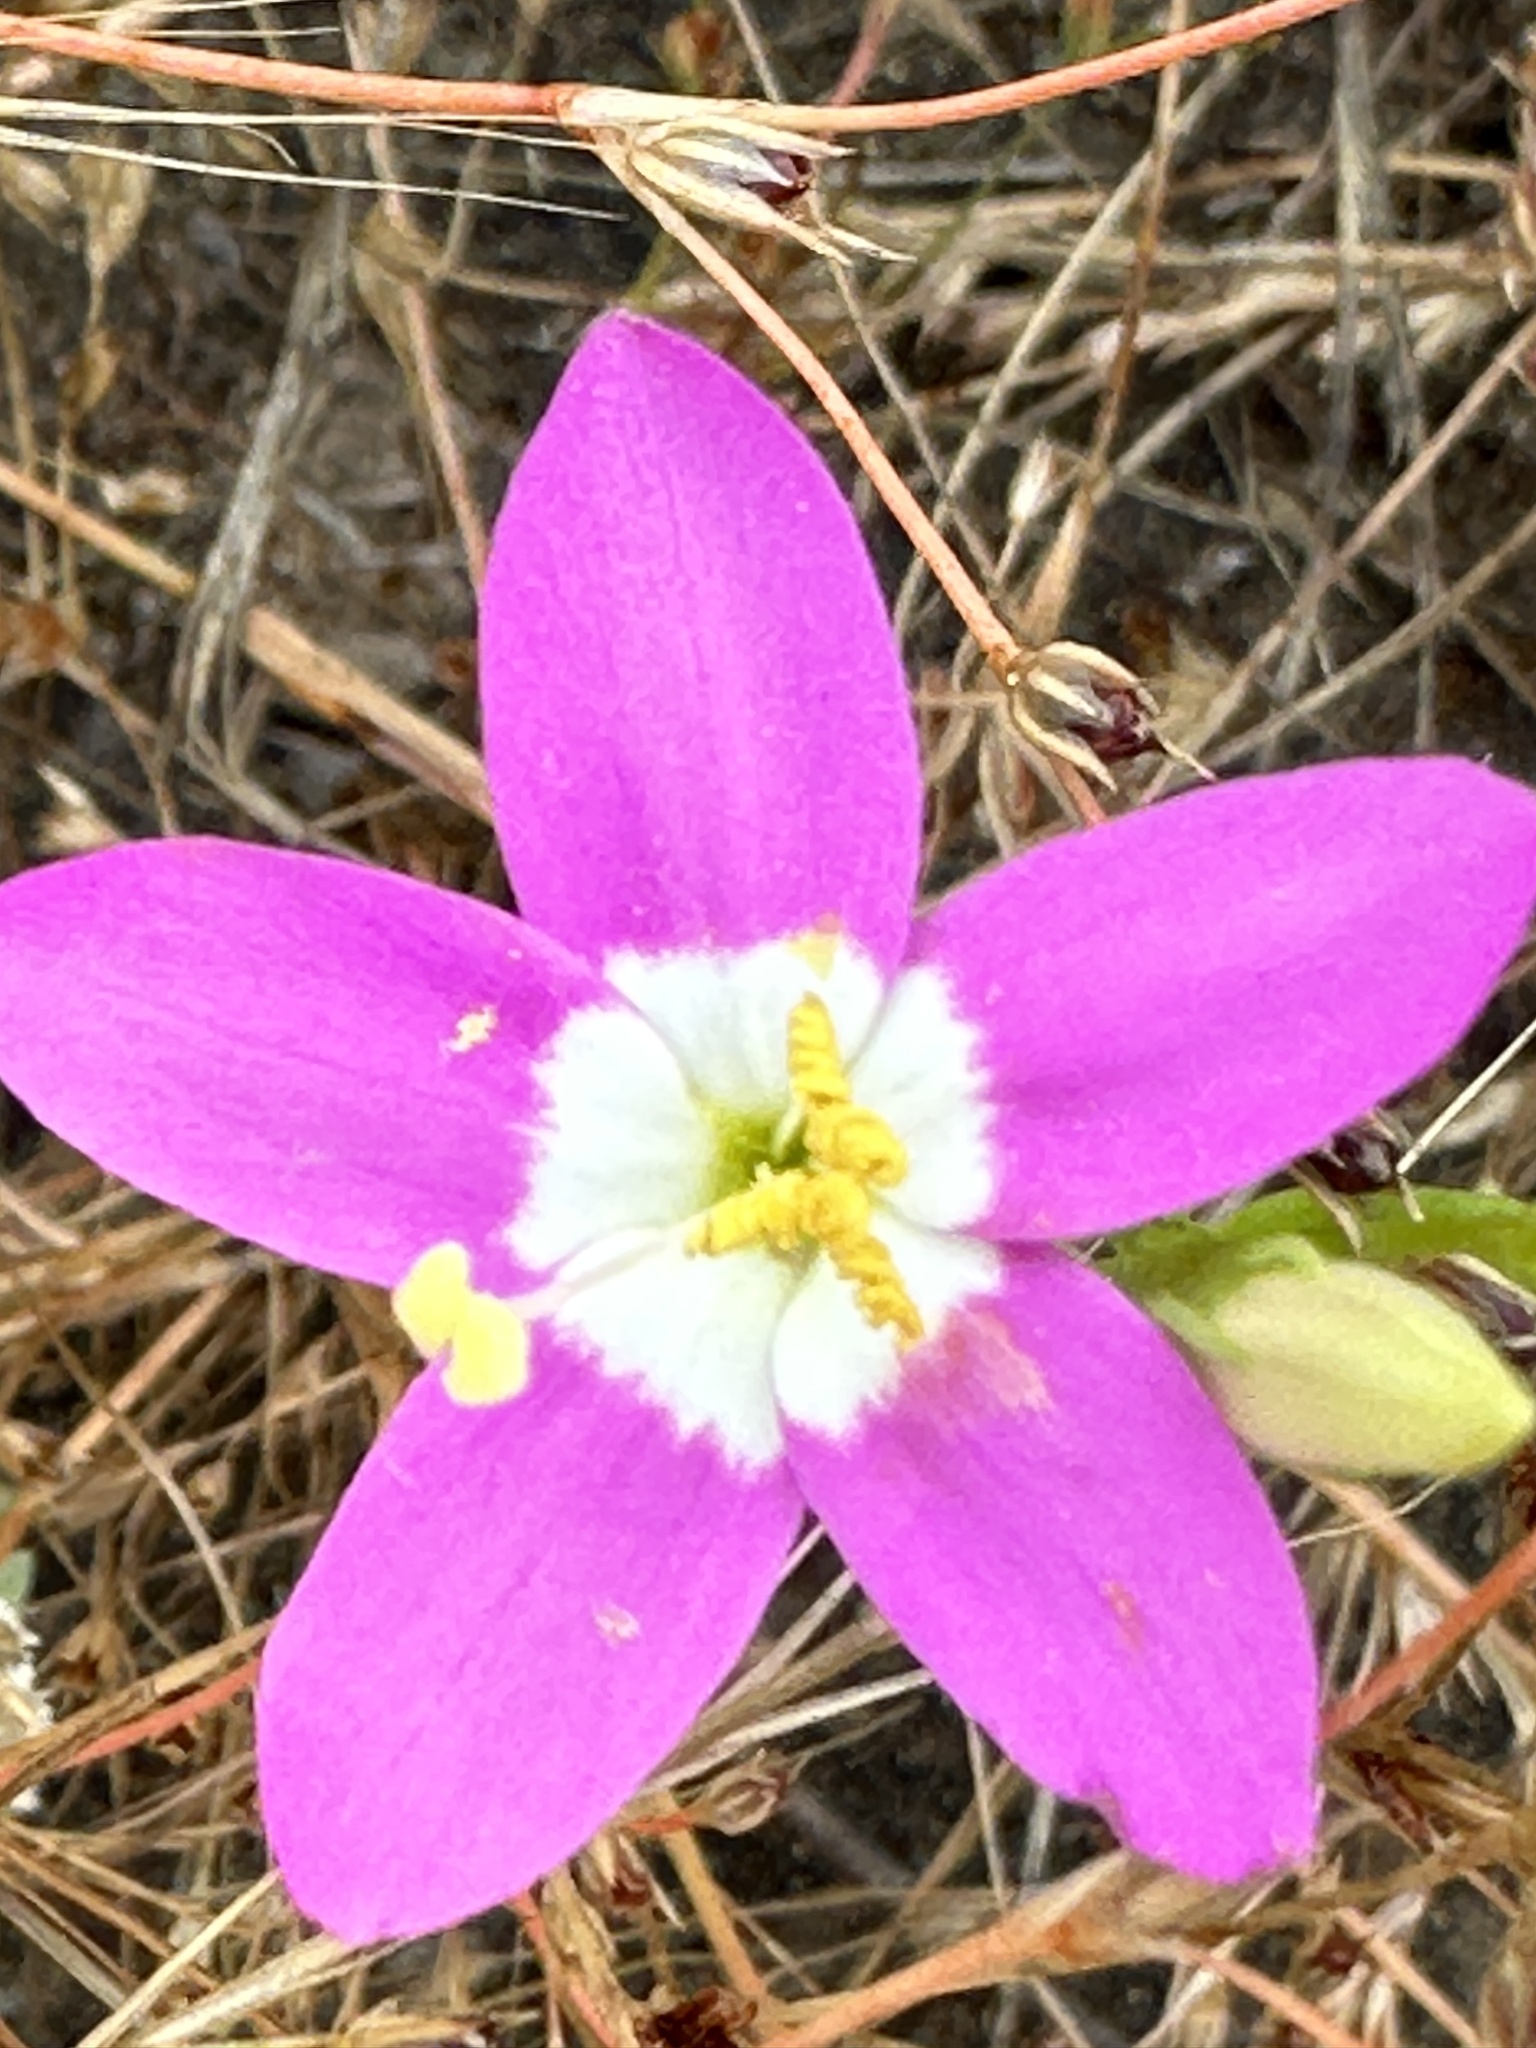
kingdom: Plantae
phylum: Tracheophyta
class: Magnoliopsida
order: Gentianales
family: Gentianaceae
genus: Zeltnera
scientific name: Zeltnera venusta
